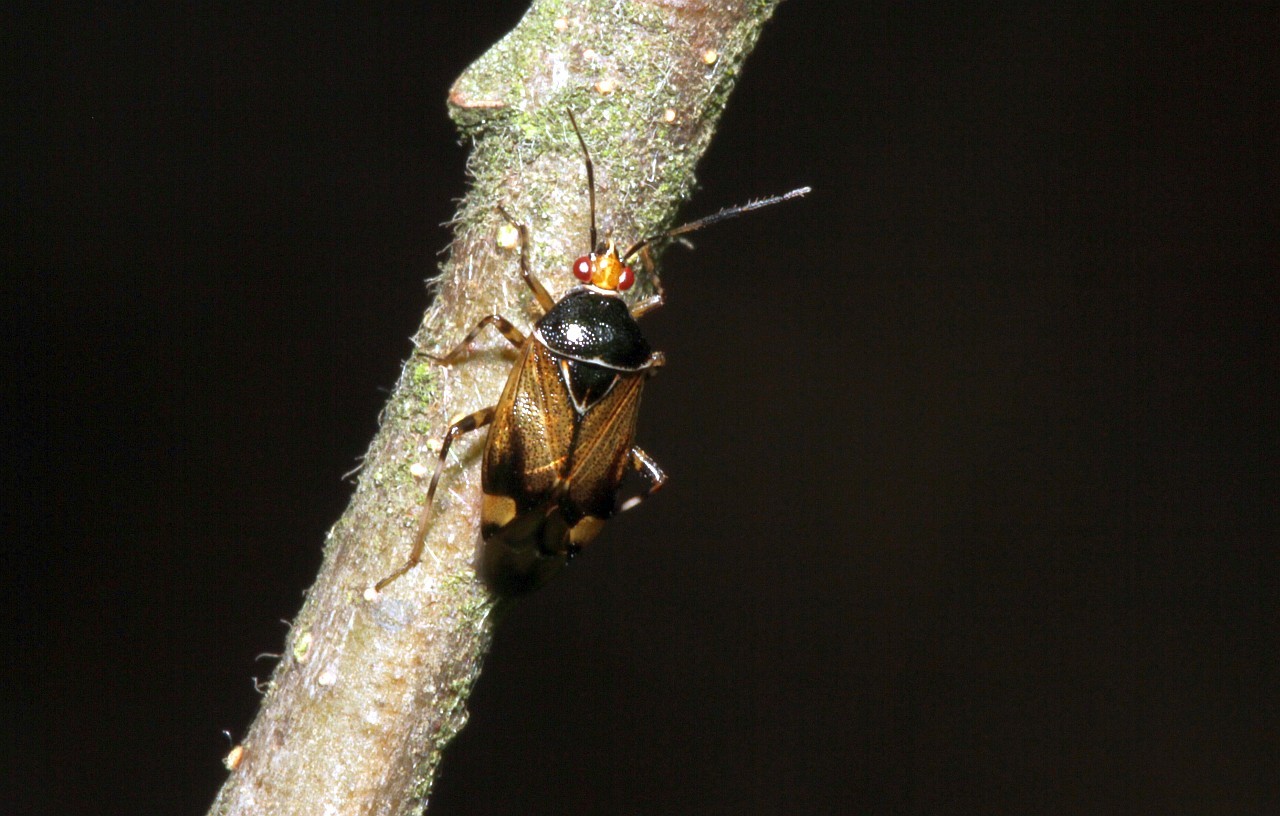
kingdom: Animalia
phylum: Arthropoda
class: Insecta
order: Hemiptera
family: Miridae
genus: Deraeocoris
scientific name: Deraeocoris flavilinea
